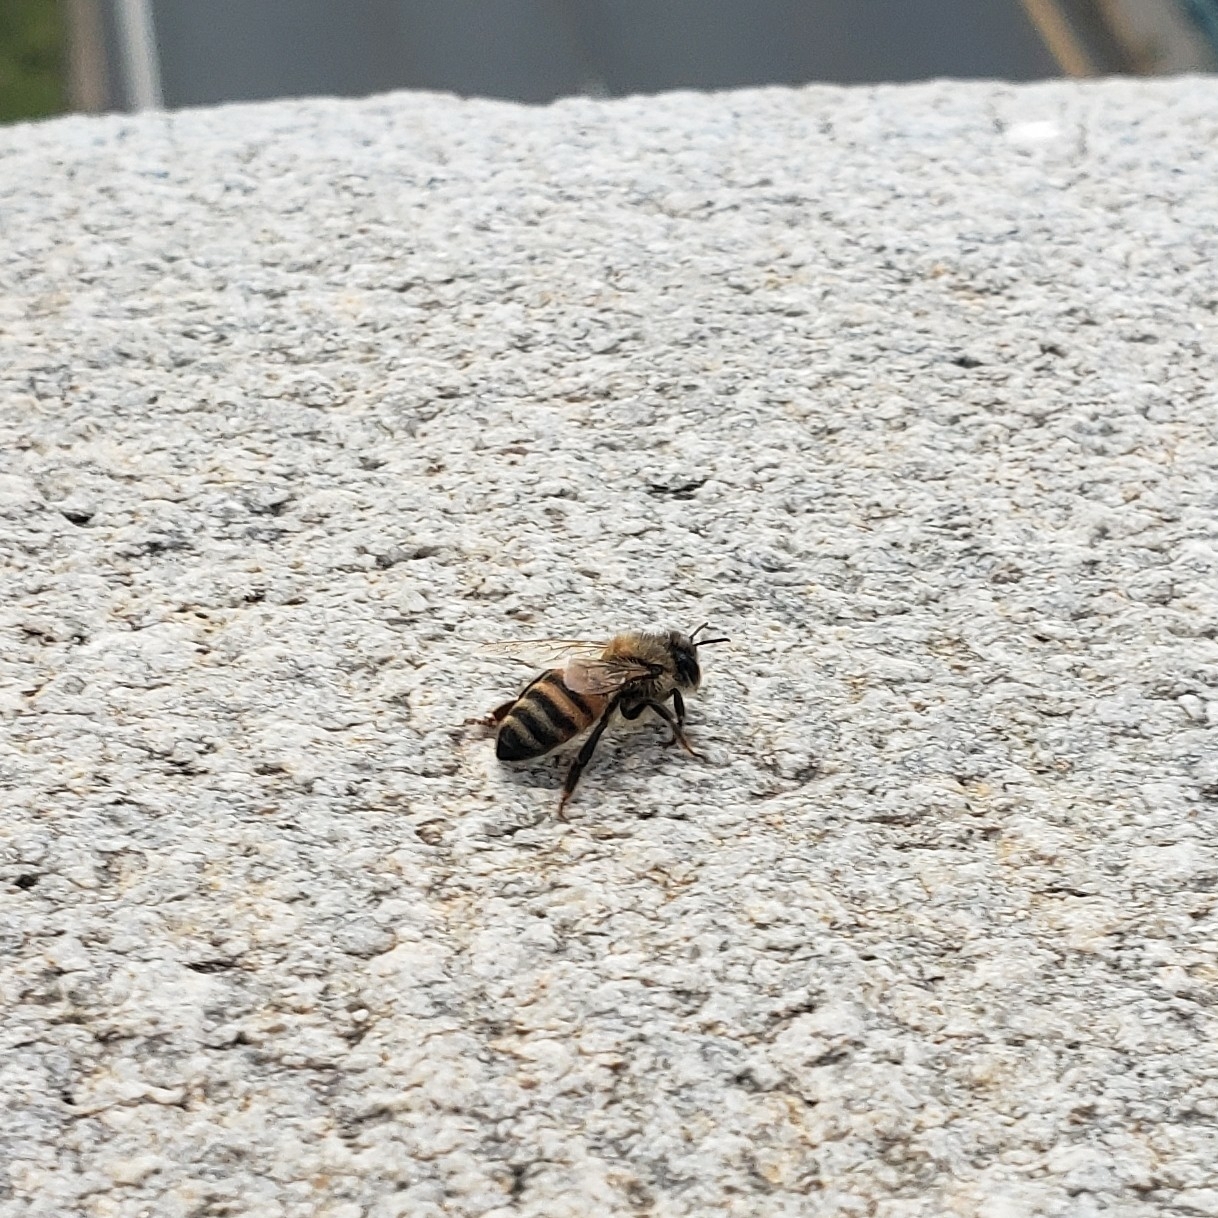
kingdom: Animalia
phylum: Arthropoda
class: Insecta
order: Hymenoptera
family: Apidae
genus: Apis
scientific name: Apis mellifera
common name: Honey bee
